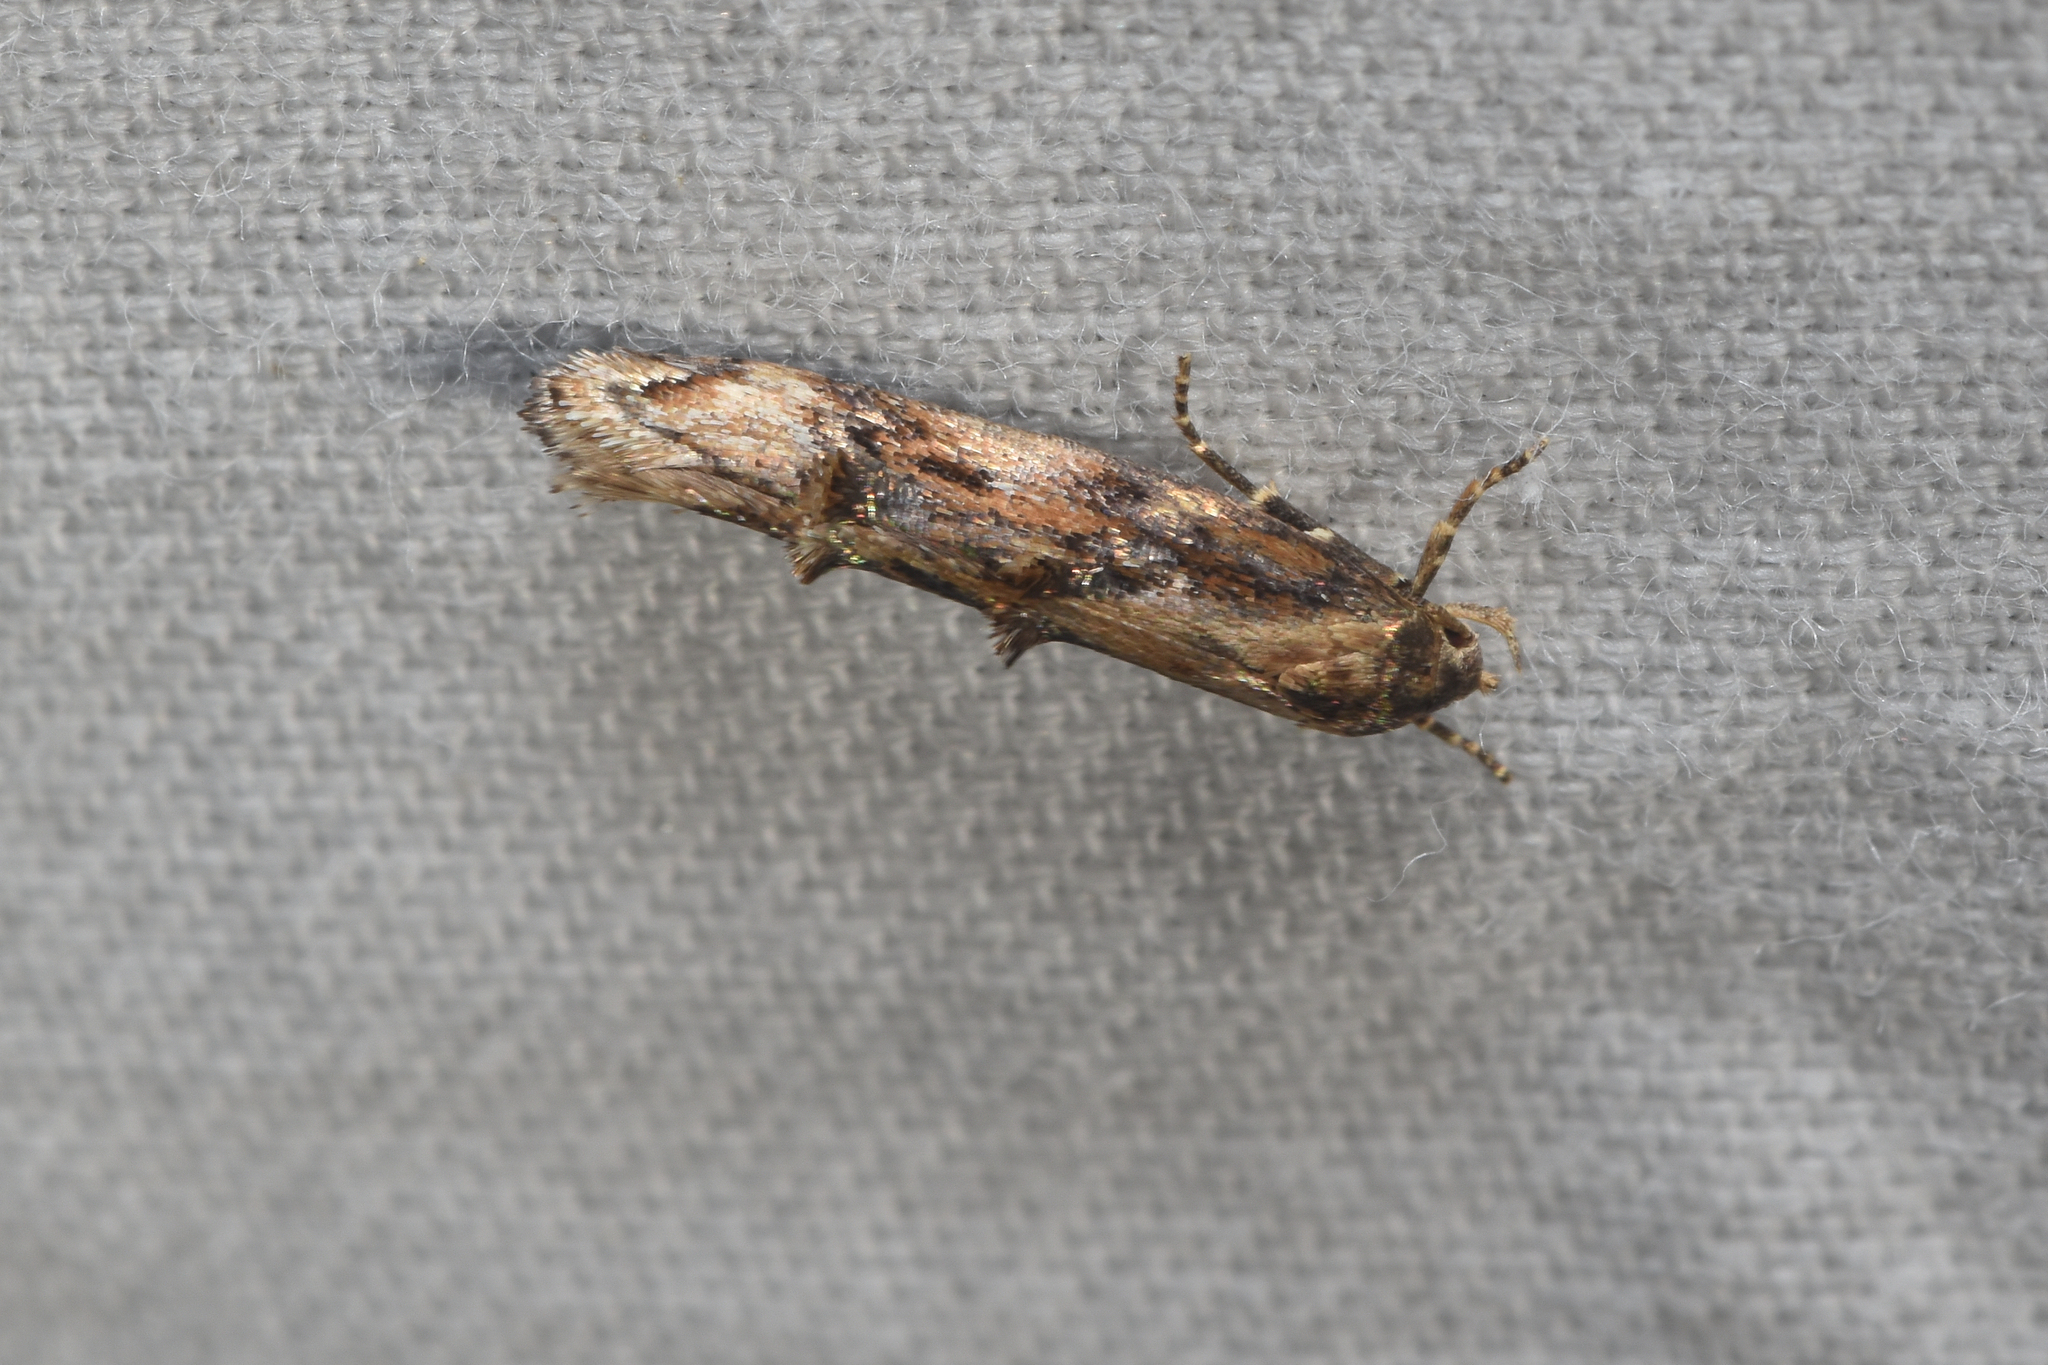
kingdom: Animalia
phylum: Arthropoda
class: Insecta
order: Lepidoptera
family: Momphidae
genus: Mompha
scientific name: Mompha idaei
